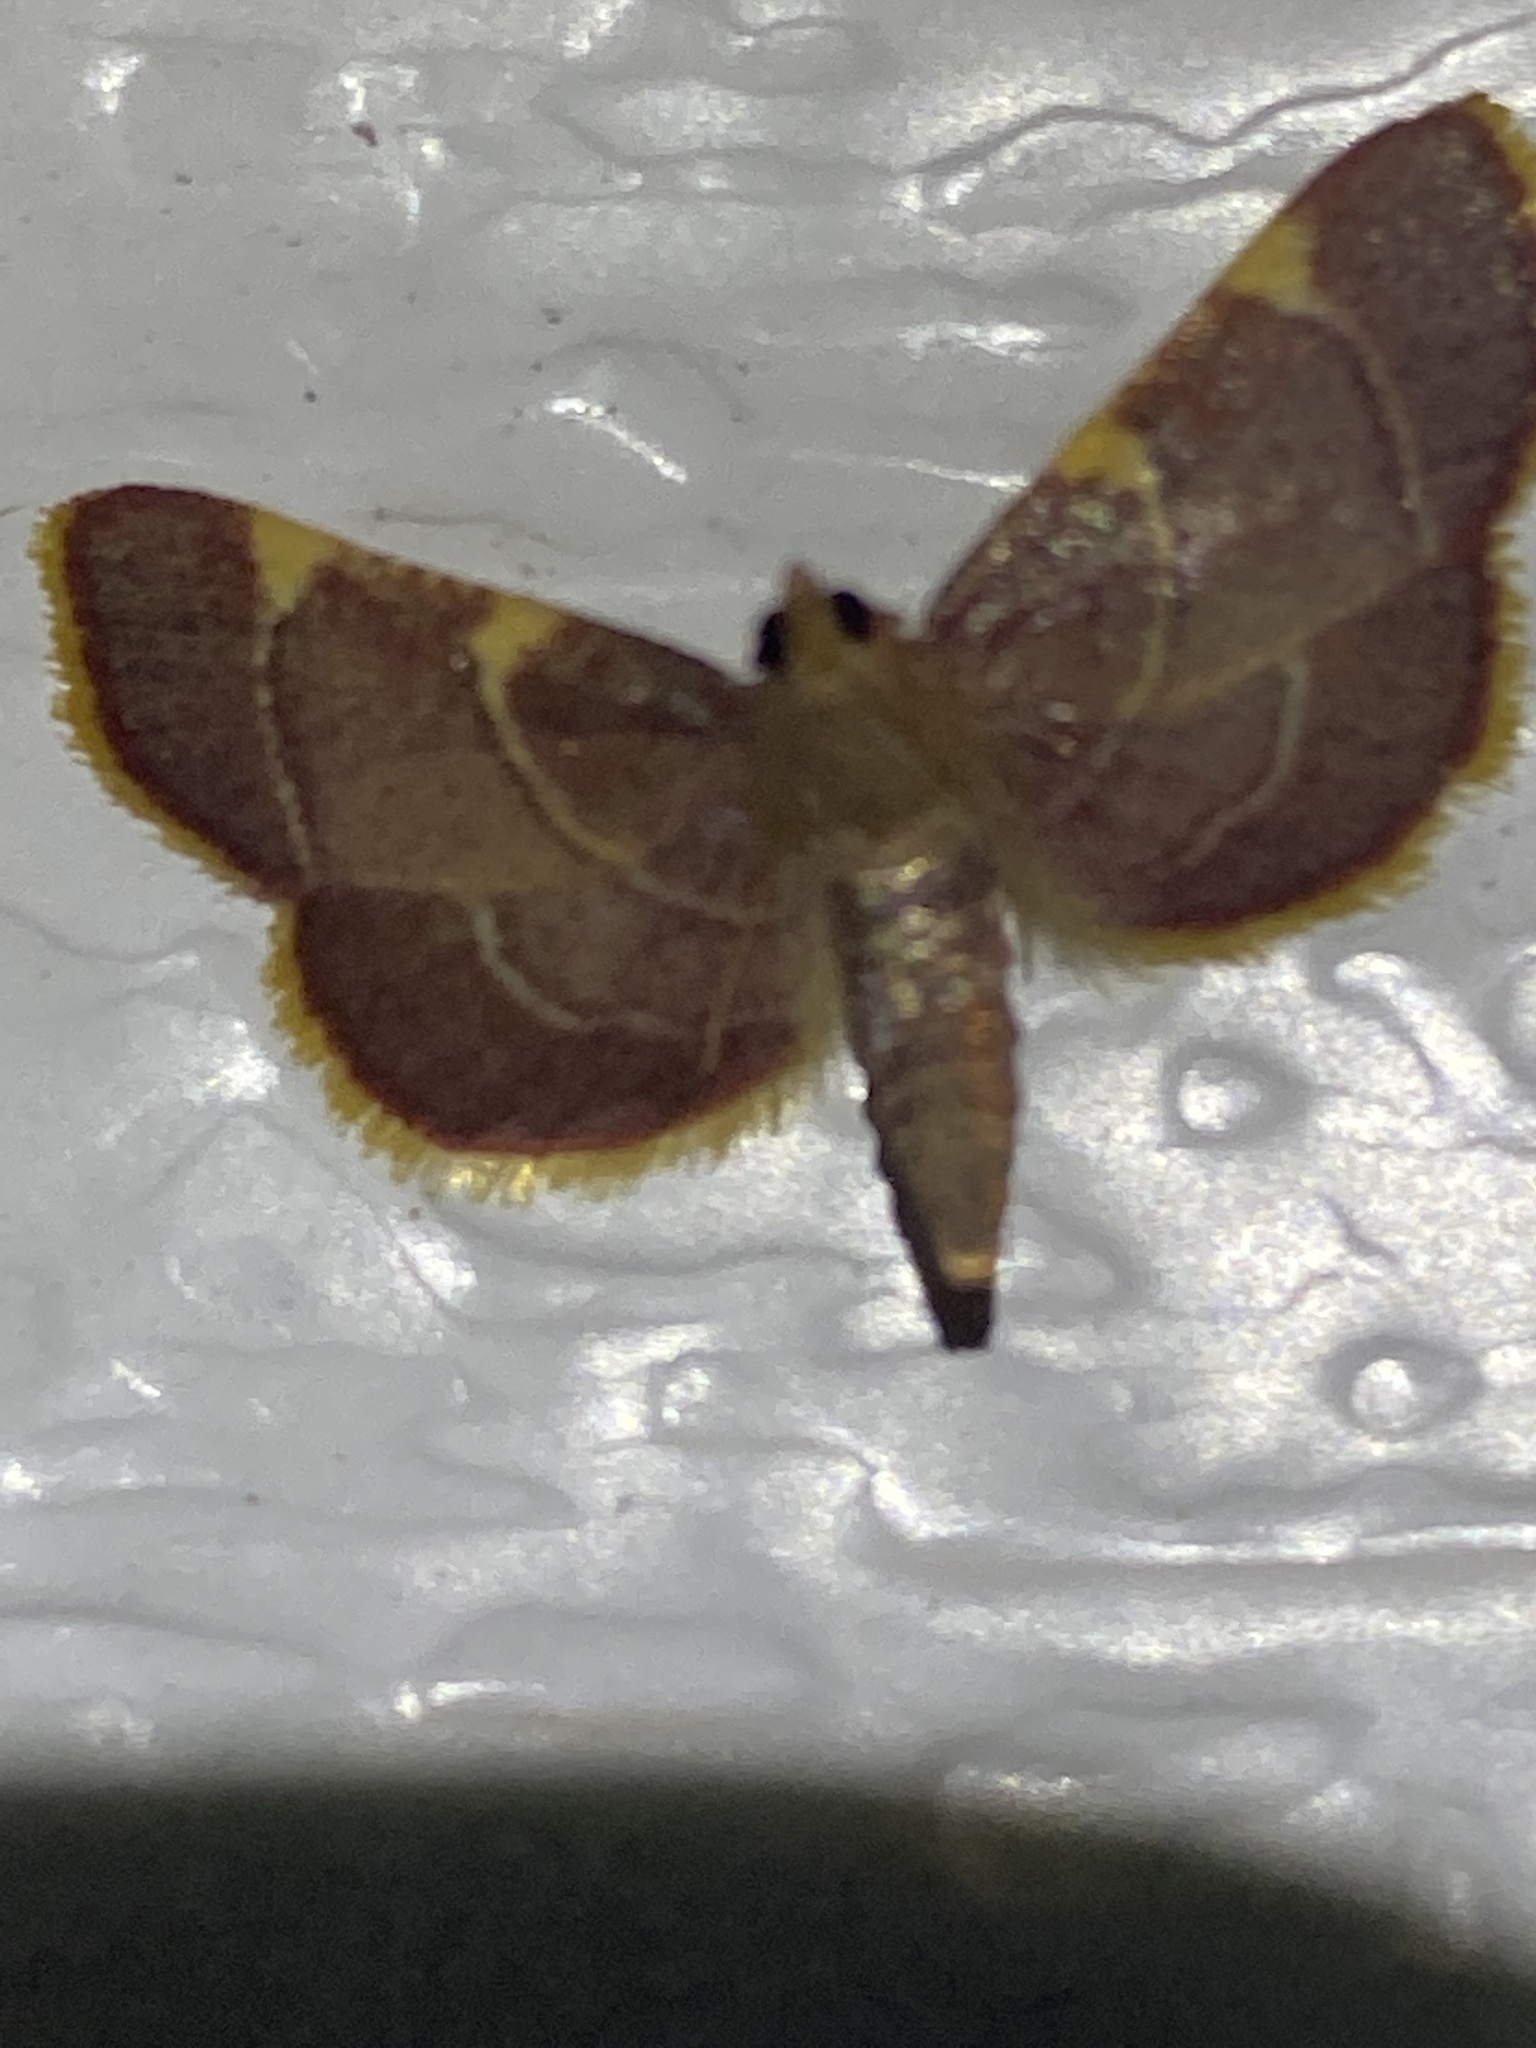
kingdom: Animalia
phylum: Arthropoda
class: Insecta
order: Lepidoptera
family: Pyralidae
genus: Hypsopygia
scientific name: Hypsopygia olinalis
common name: Yellow-fringed dolichomia moth
